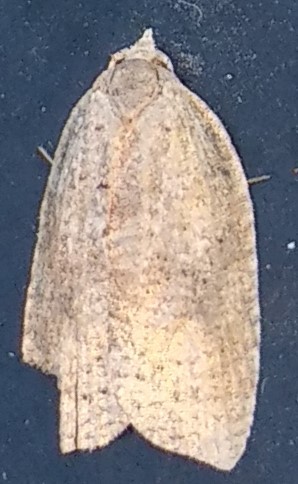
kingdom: Animalia
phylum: Arthropoda
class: Insecta
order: Lepidoptera
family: Tortricidae
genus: Amorbia
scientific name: Amorbia humerosana
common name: White-lined leafroller moth
